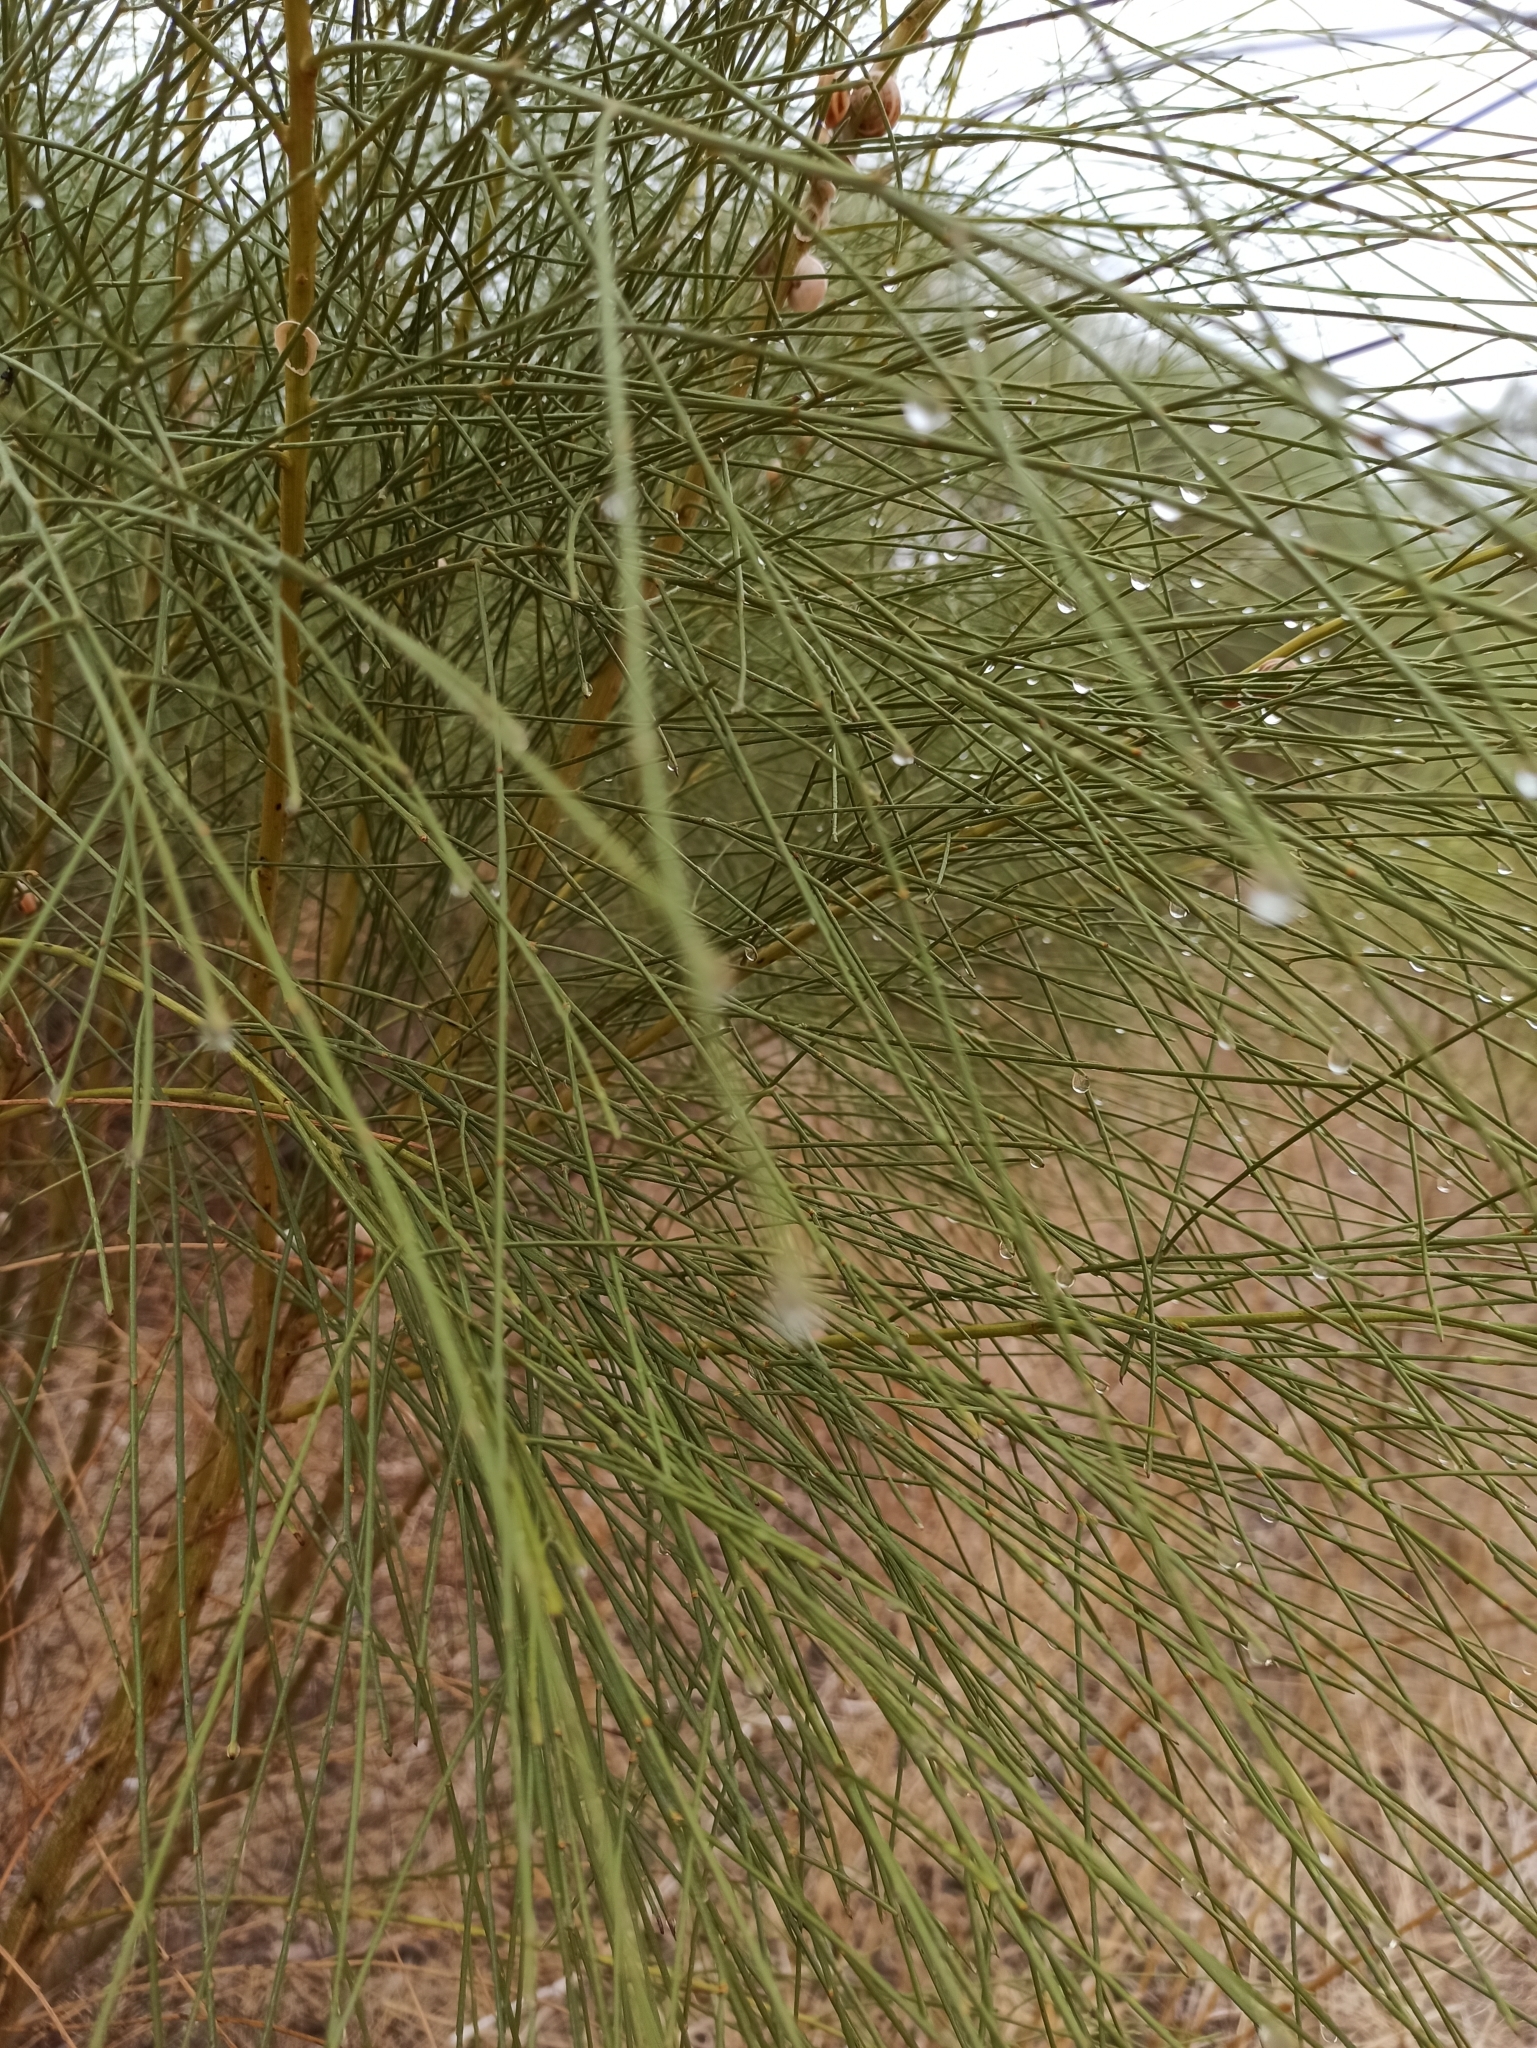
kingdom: Plantae
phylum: Tracheophyta
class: Magnoliopsida
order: Fabales
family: Fabaceae
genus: Retama
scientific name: Retama monosperma
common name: Bridal broom
